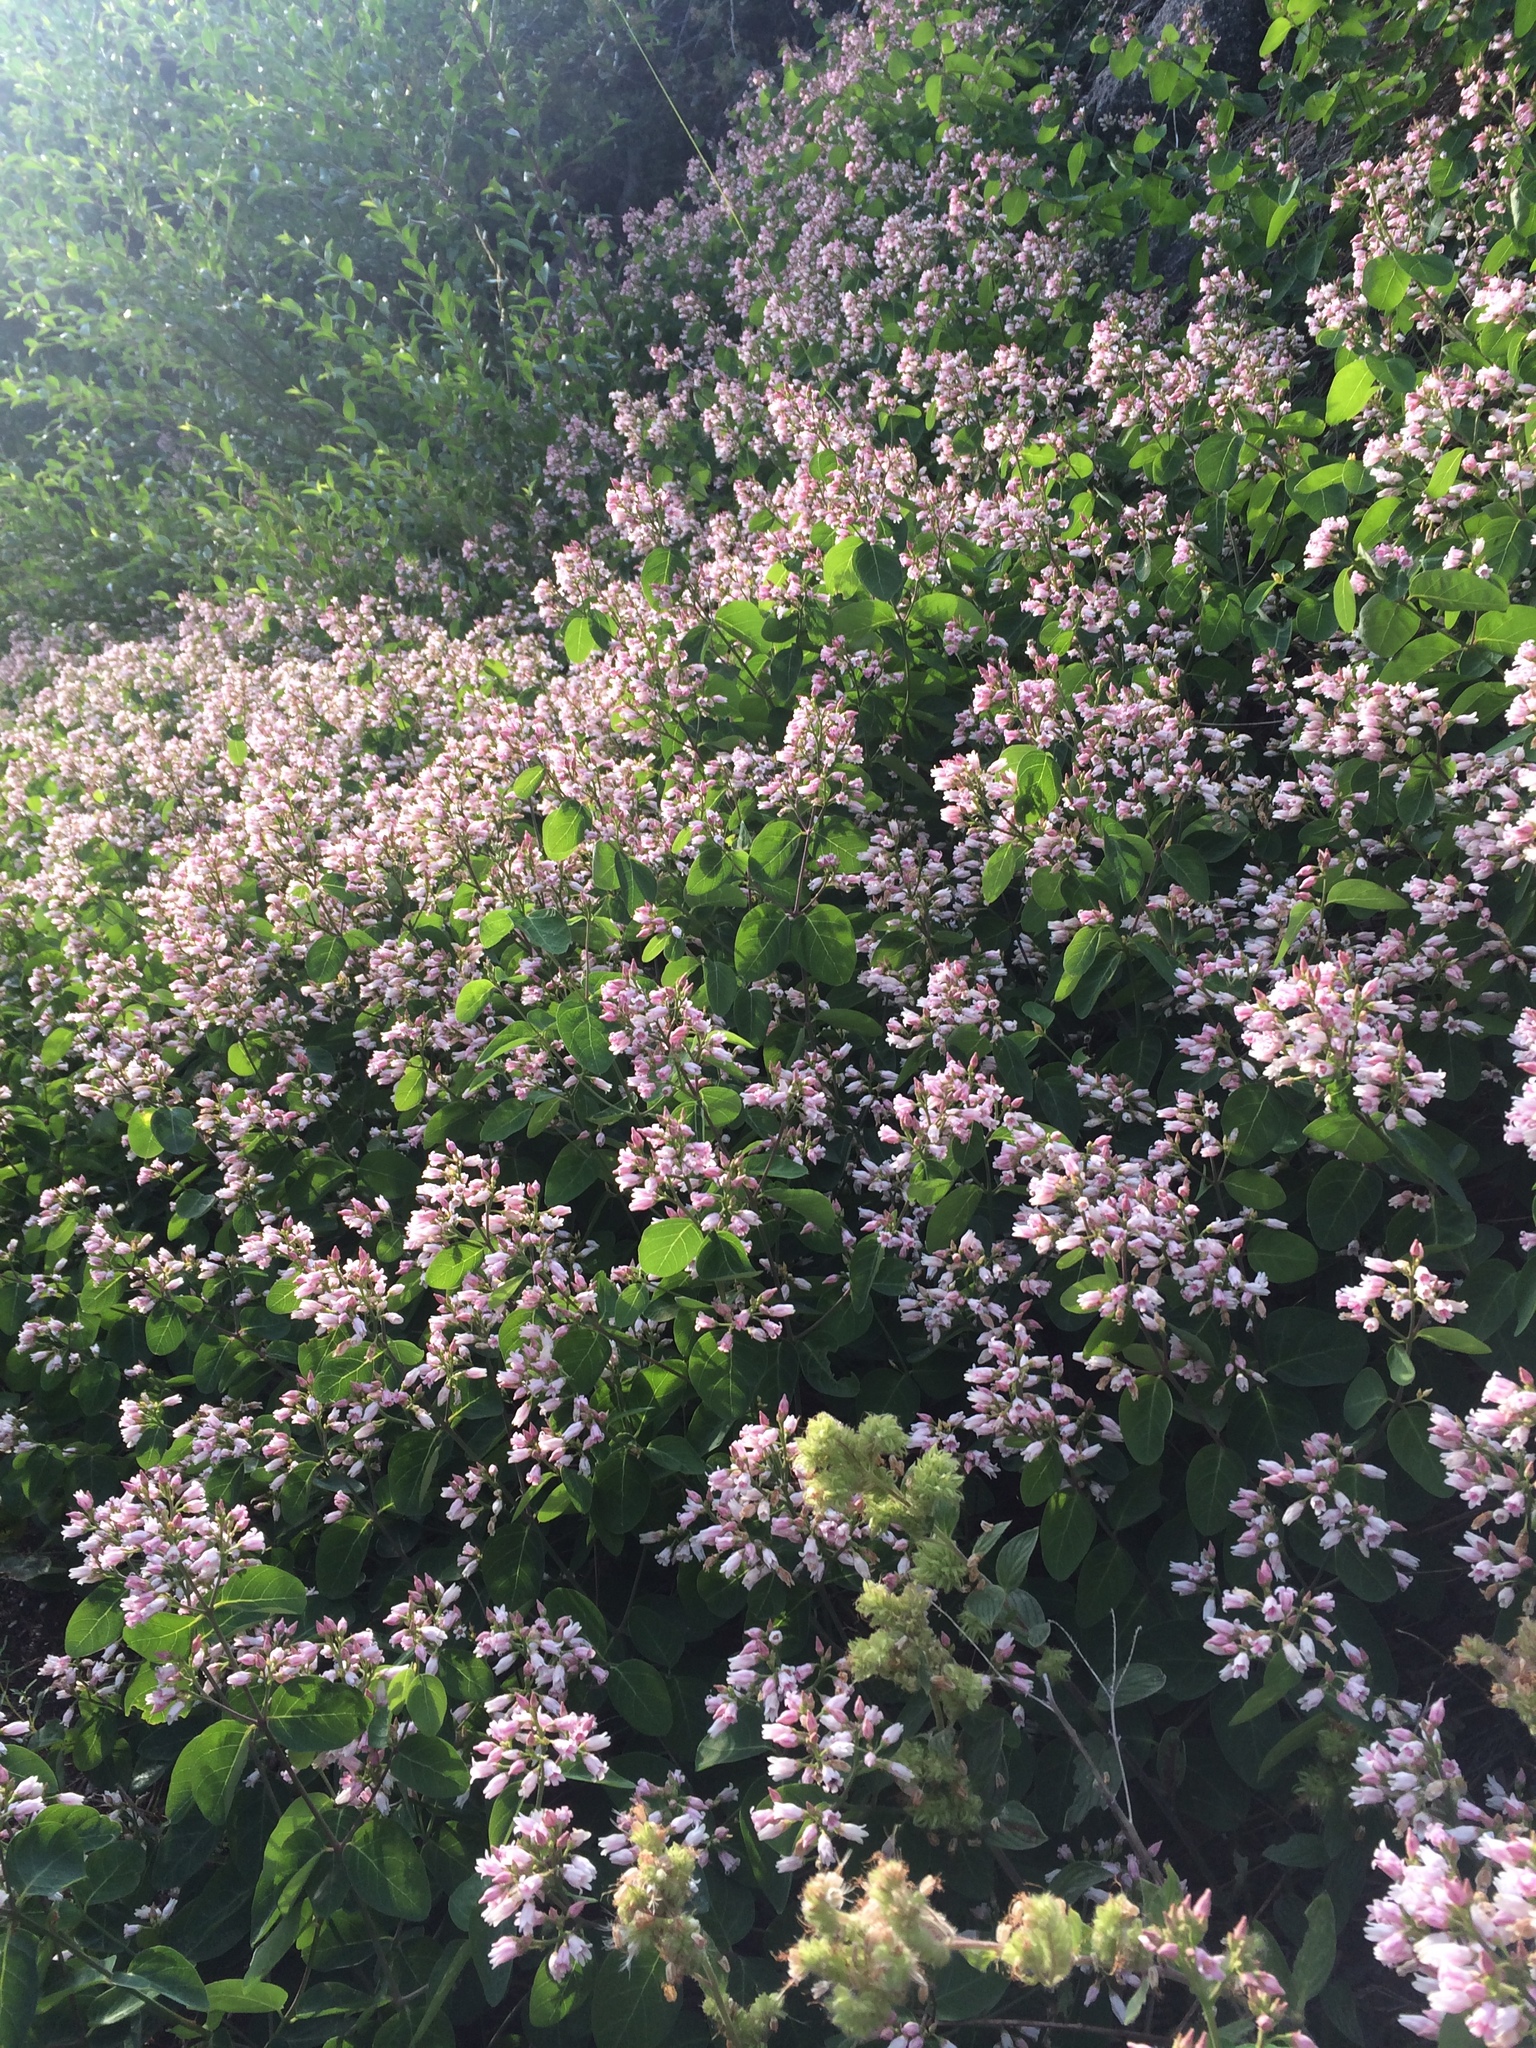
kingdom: Plantae
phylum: Tracheophyta
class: Magnoliopsida
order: Gentianales
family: Apocynaceae
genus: Apocynum
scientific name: Apocynum androsaemifolium
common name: Spreading dogbane
